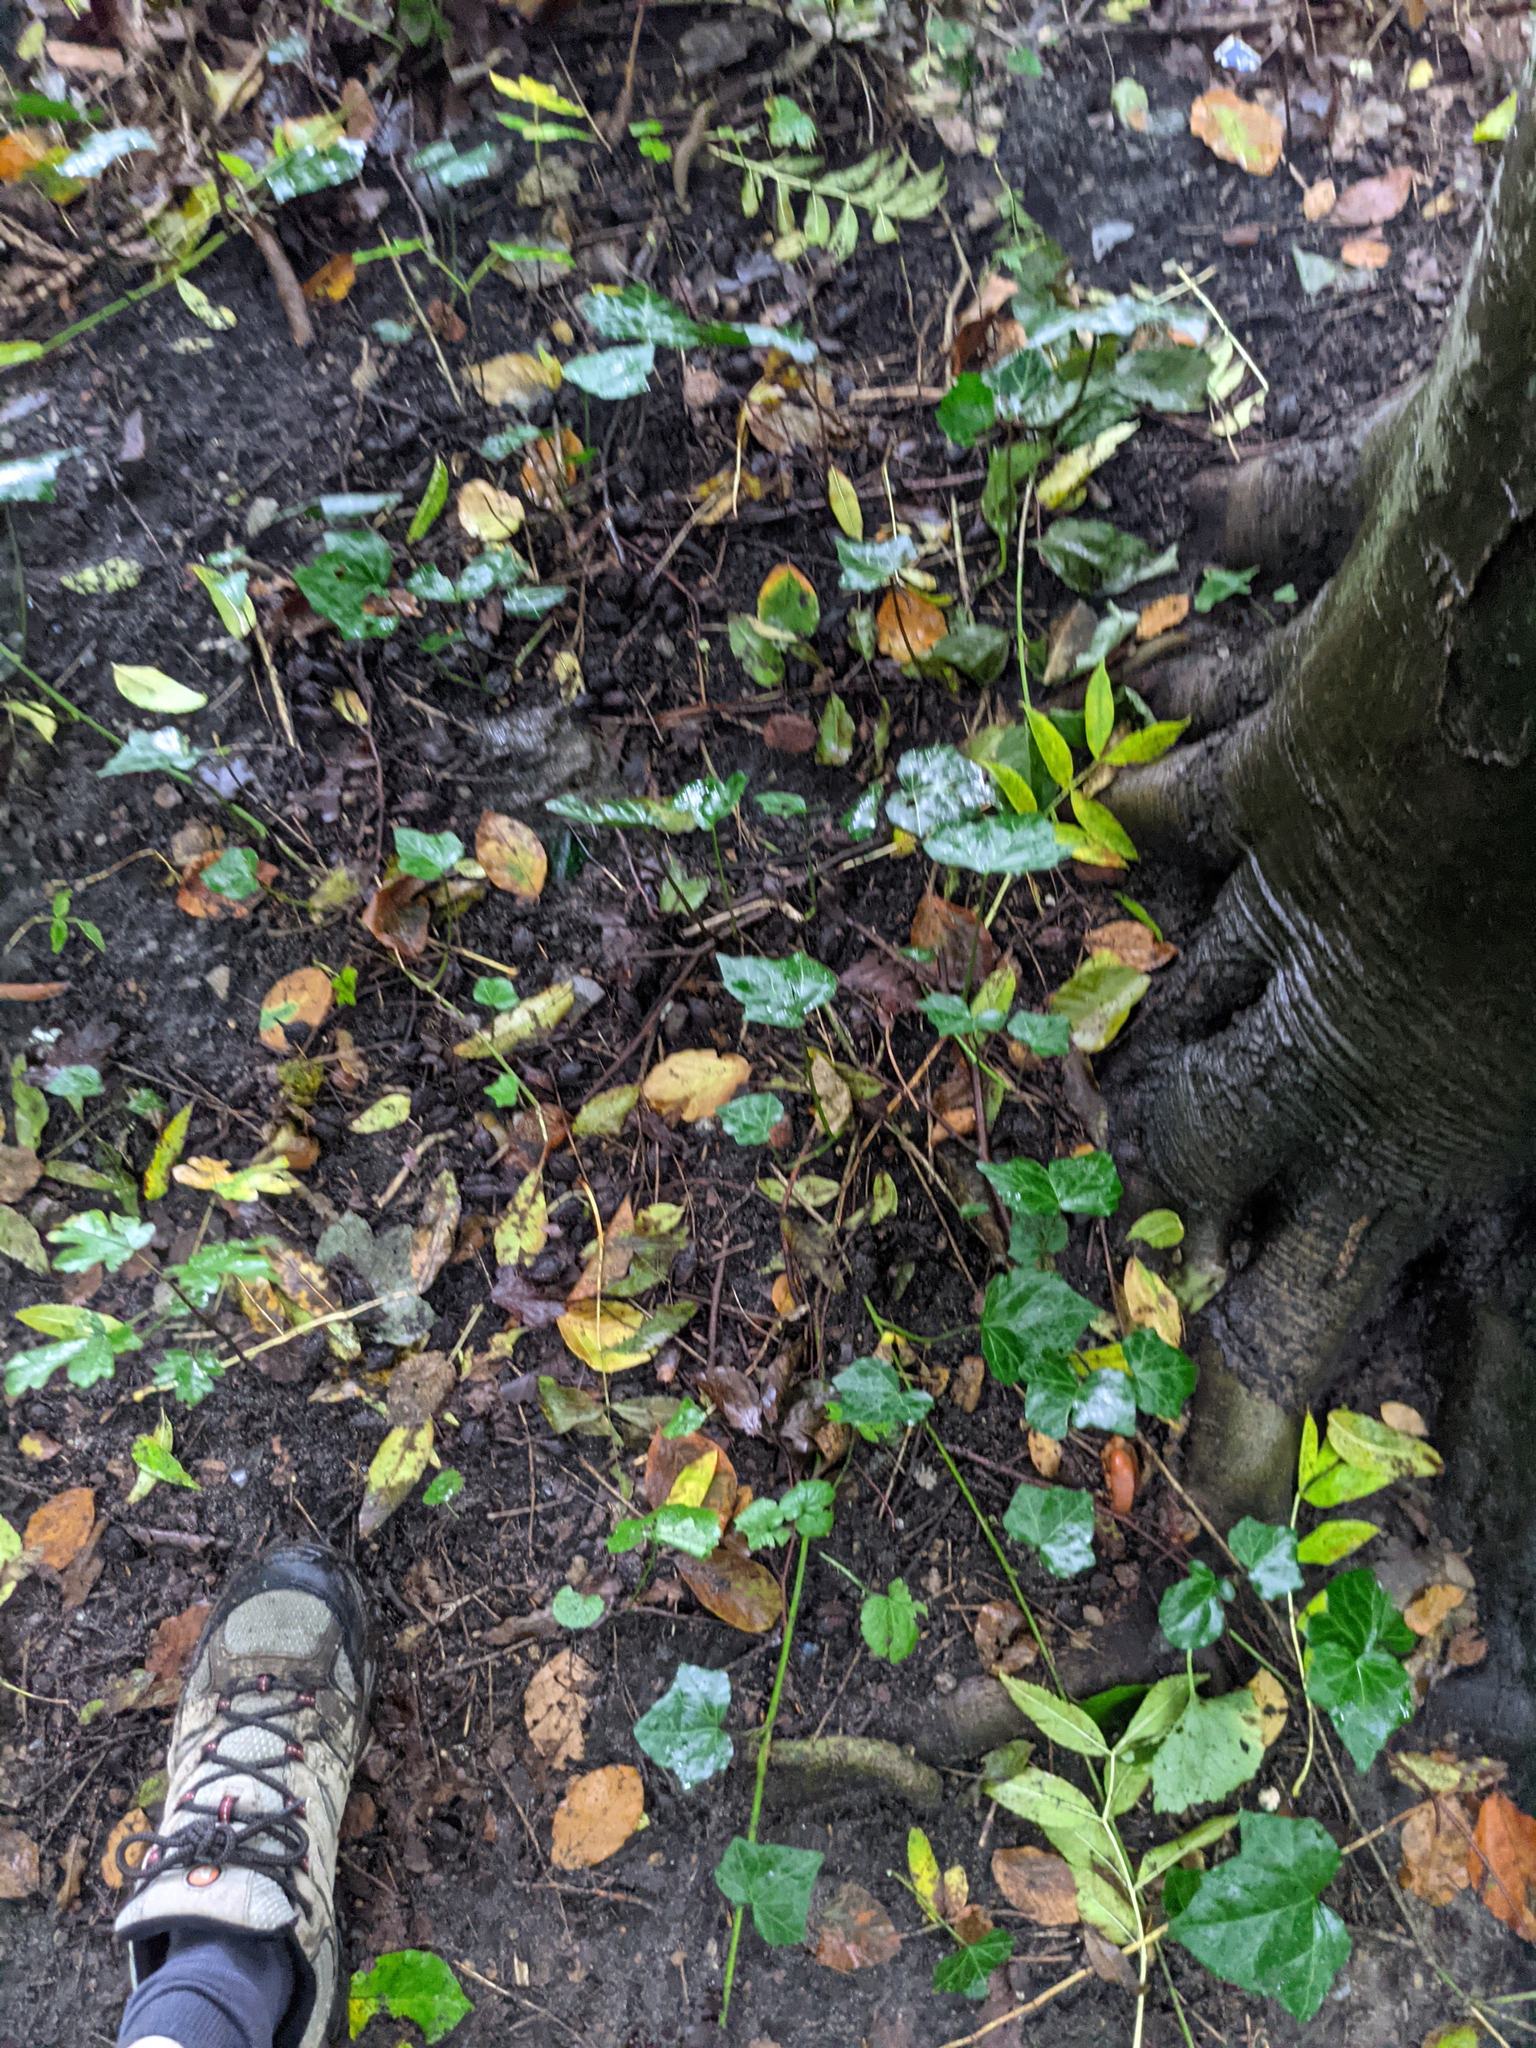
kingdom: Plantae
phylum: Tracheophyta
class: Magnoliopsida
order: Apiales
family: Araliaceae
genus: Hedera
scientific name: Hedera helix
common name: Ivy
